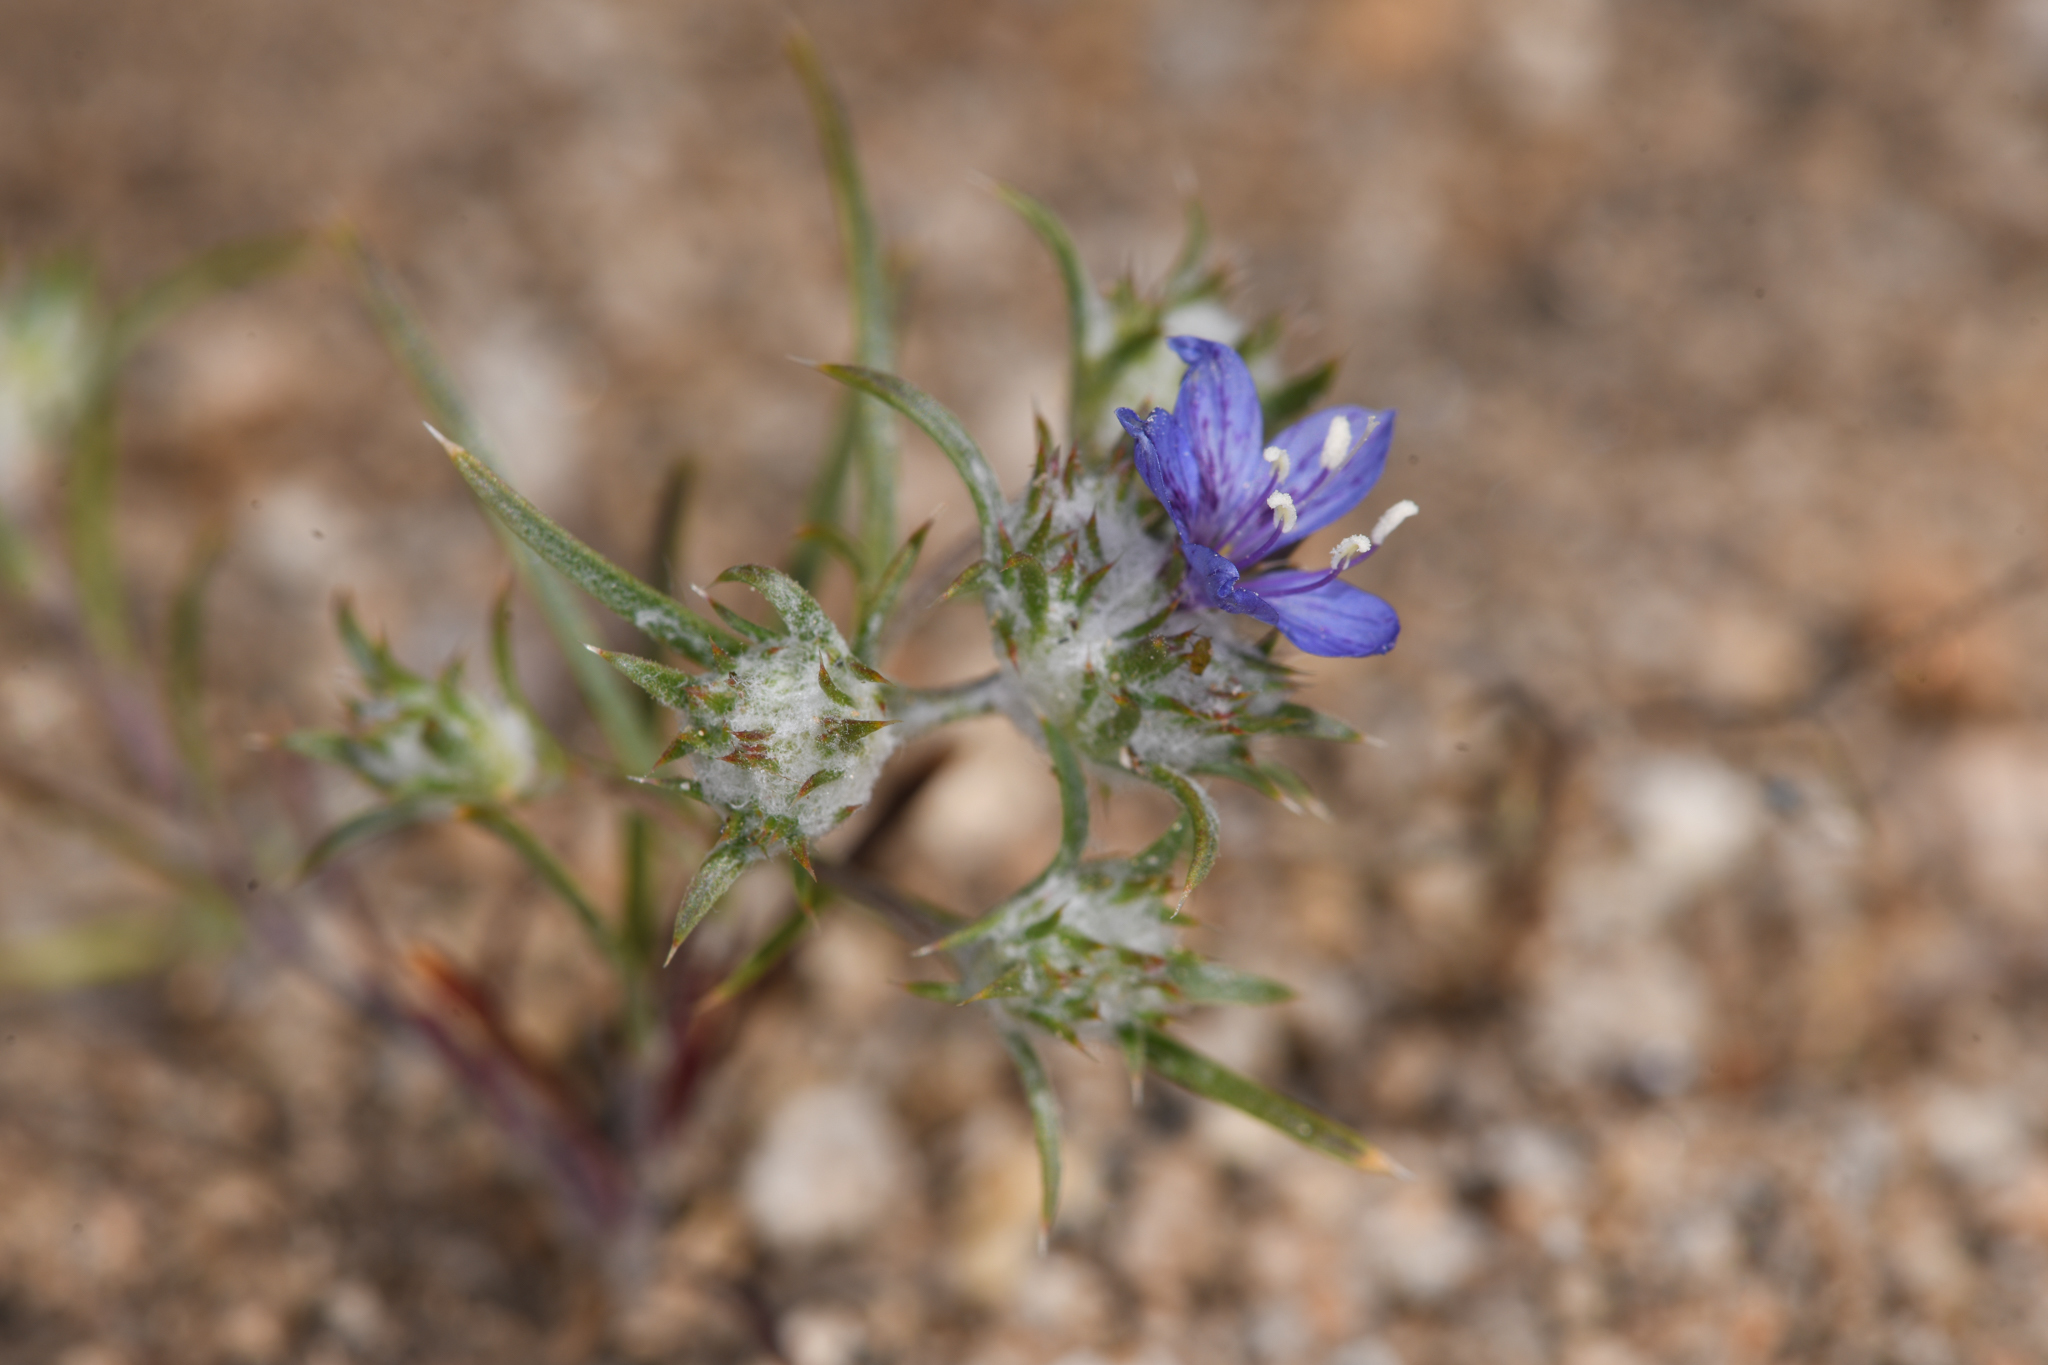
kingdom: Plantae
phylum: Tracheophyta
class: Magnoliopsida
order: Ericales
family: Polemoniaceae
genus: Eriastrum
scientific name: Eriastrum sapphirinum
